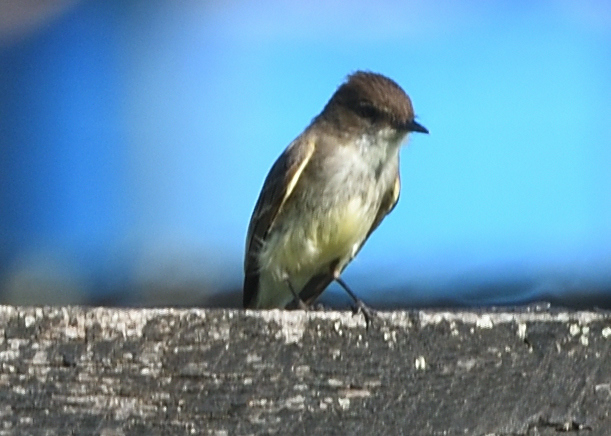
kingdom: Animalia
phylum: Chordata
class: Aves
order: Passeriformes
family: Tyrannidae
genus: Sayornis
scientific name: Sayornis phoebe
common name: Eastern phoebe
